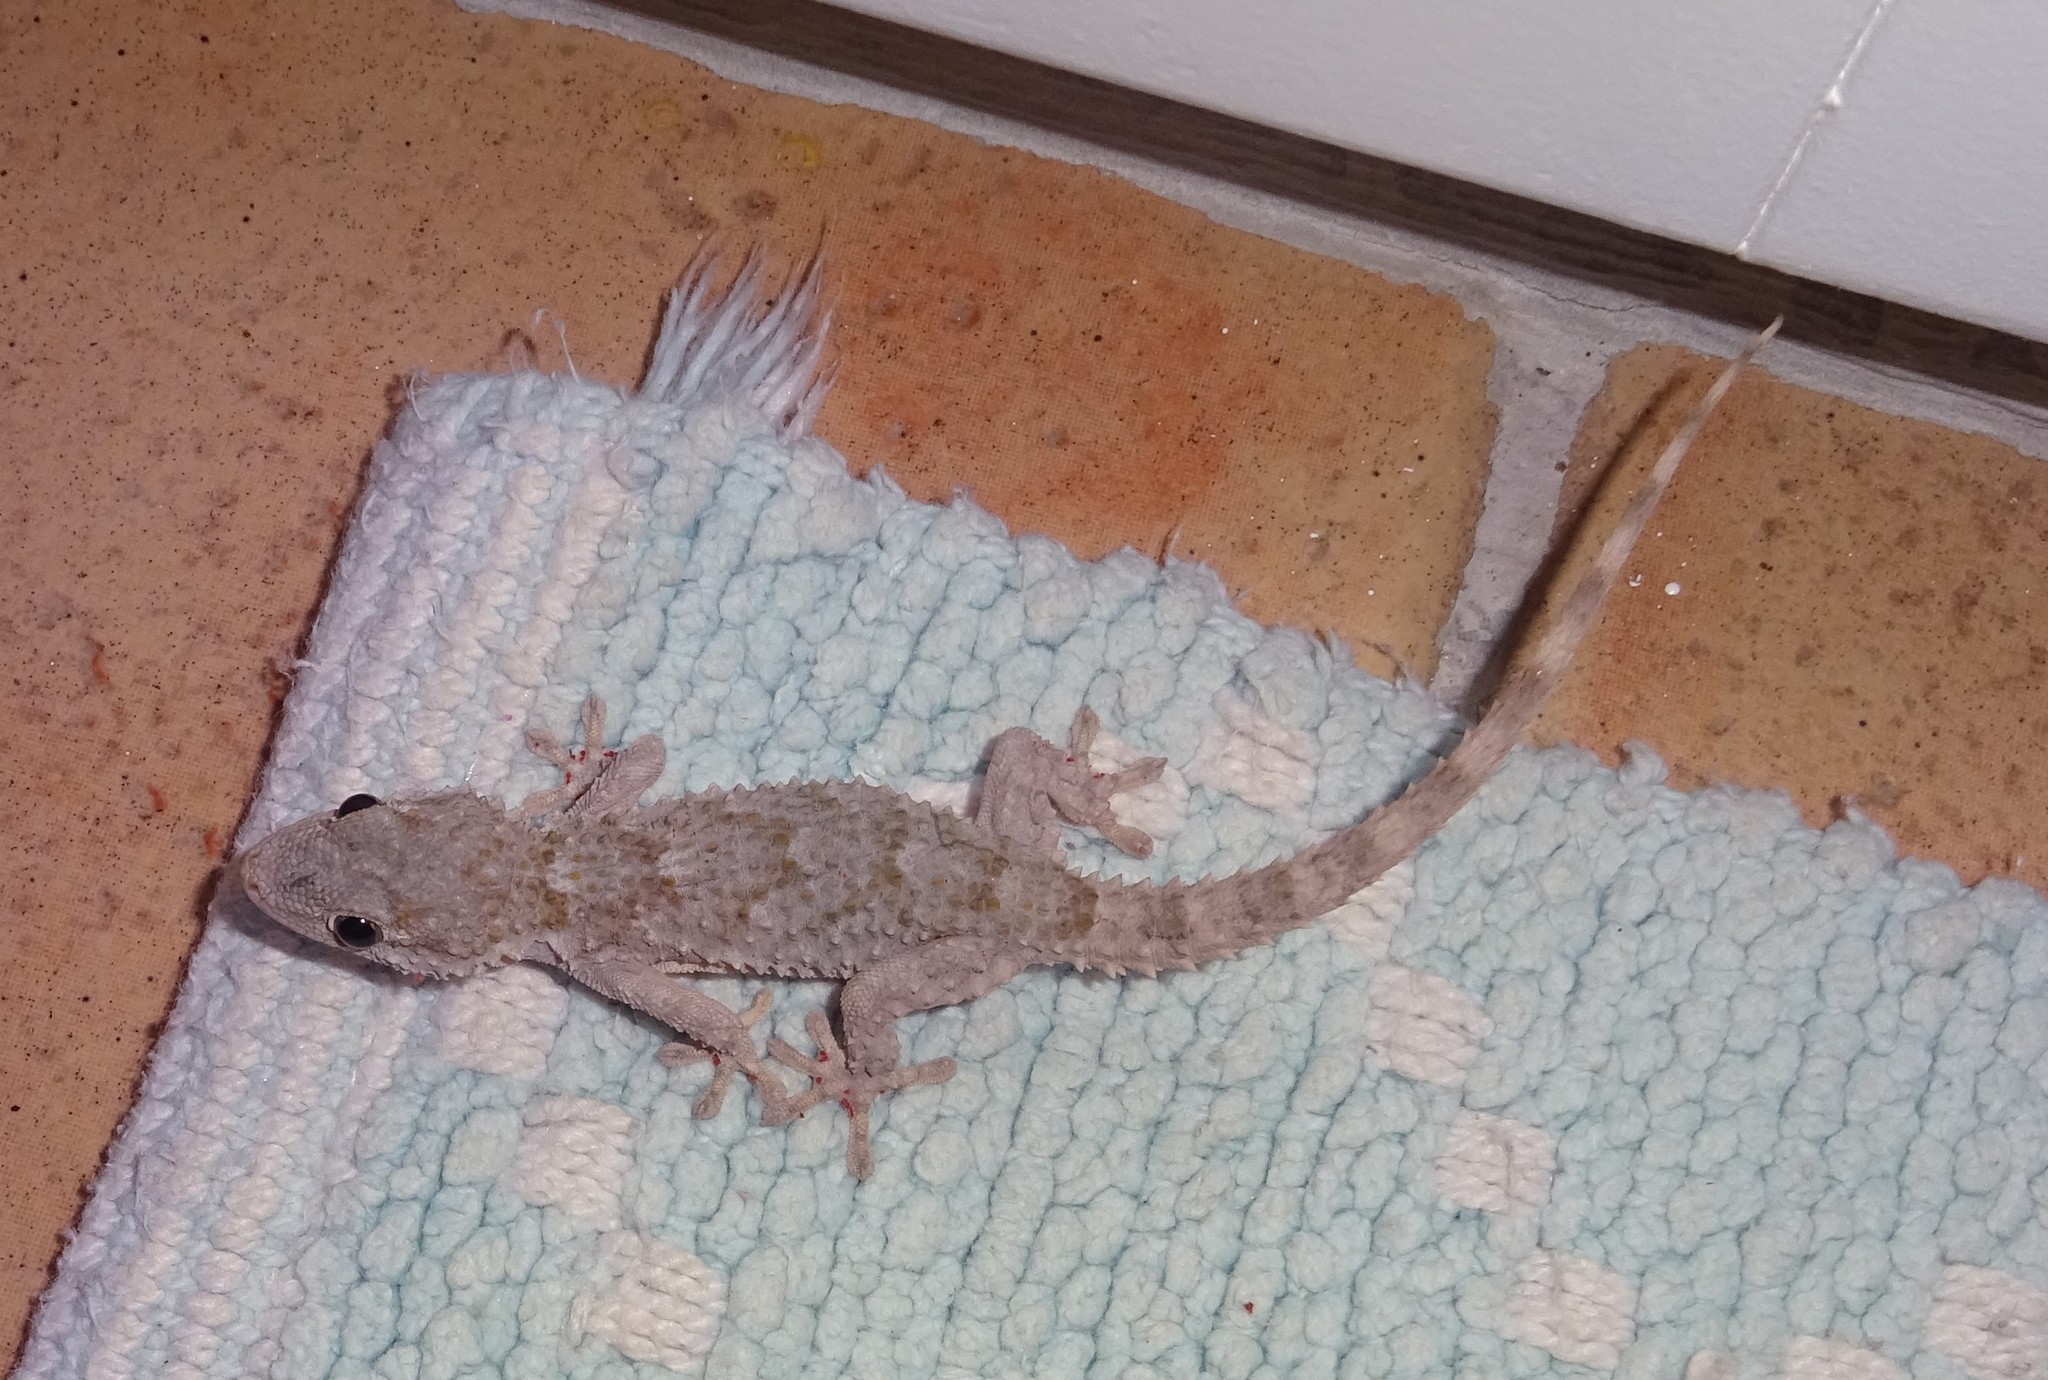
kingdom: Animalia
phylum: Chordata
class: Squamata
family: Phyllodactylidae
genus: Tarentola
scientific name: Tarentola mauritanica
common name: Moorish gecko
